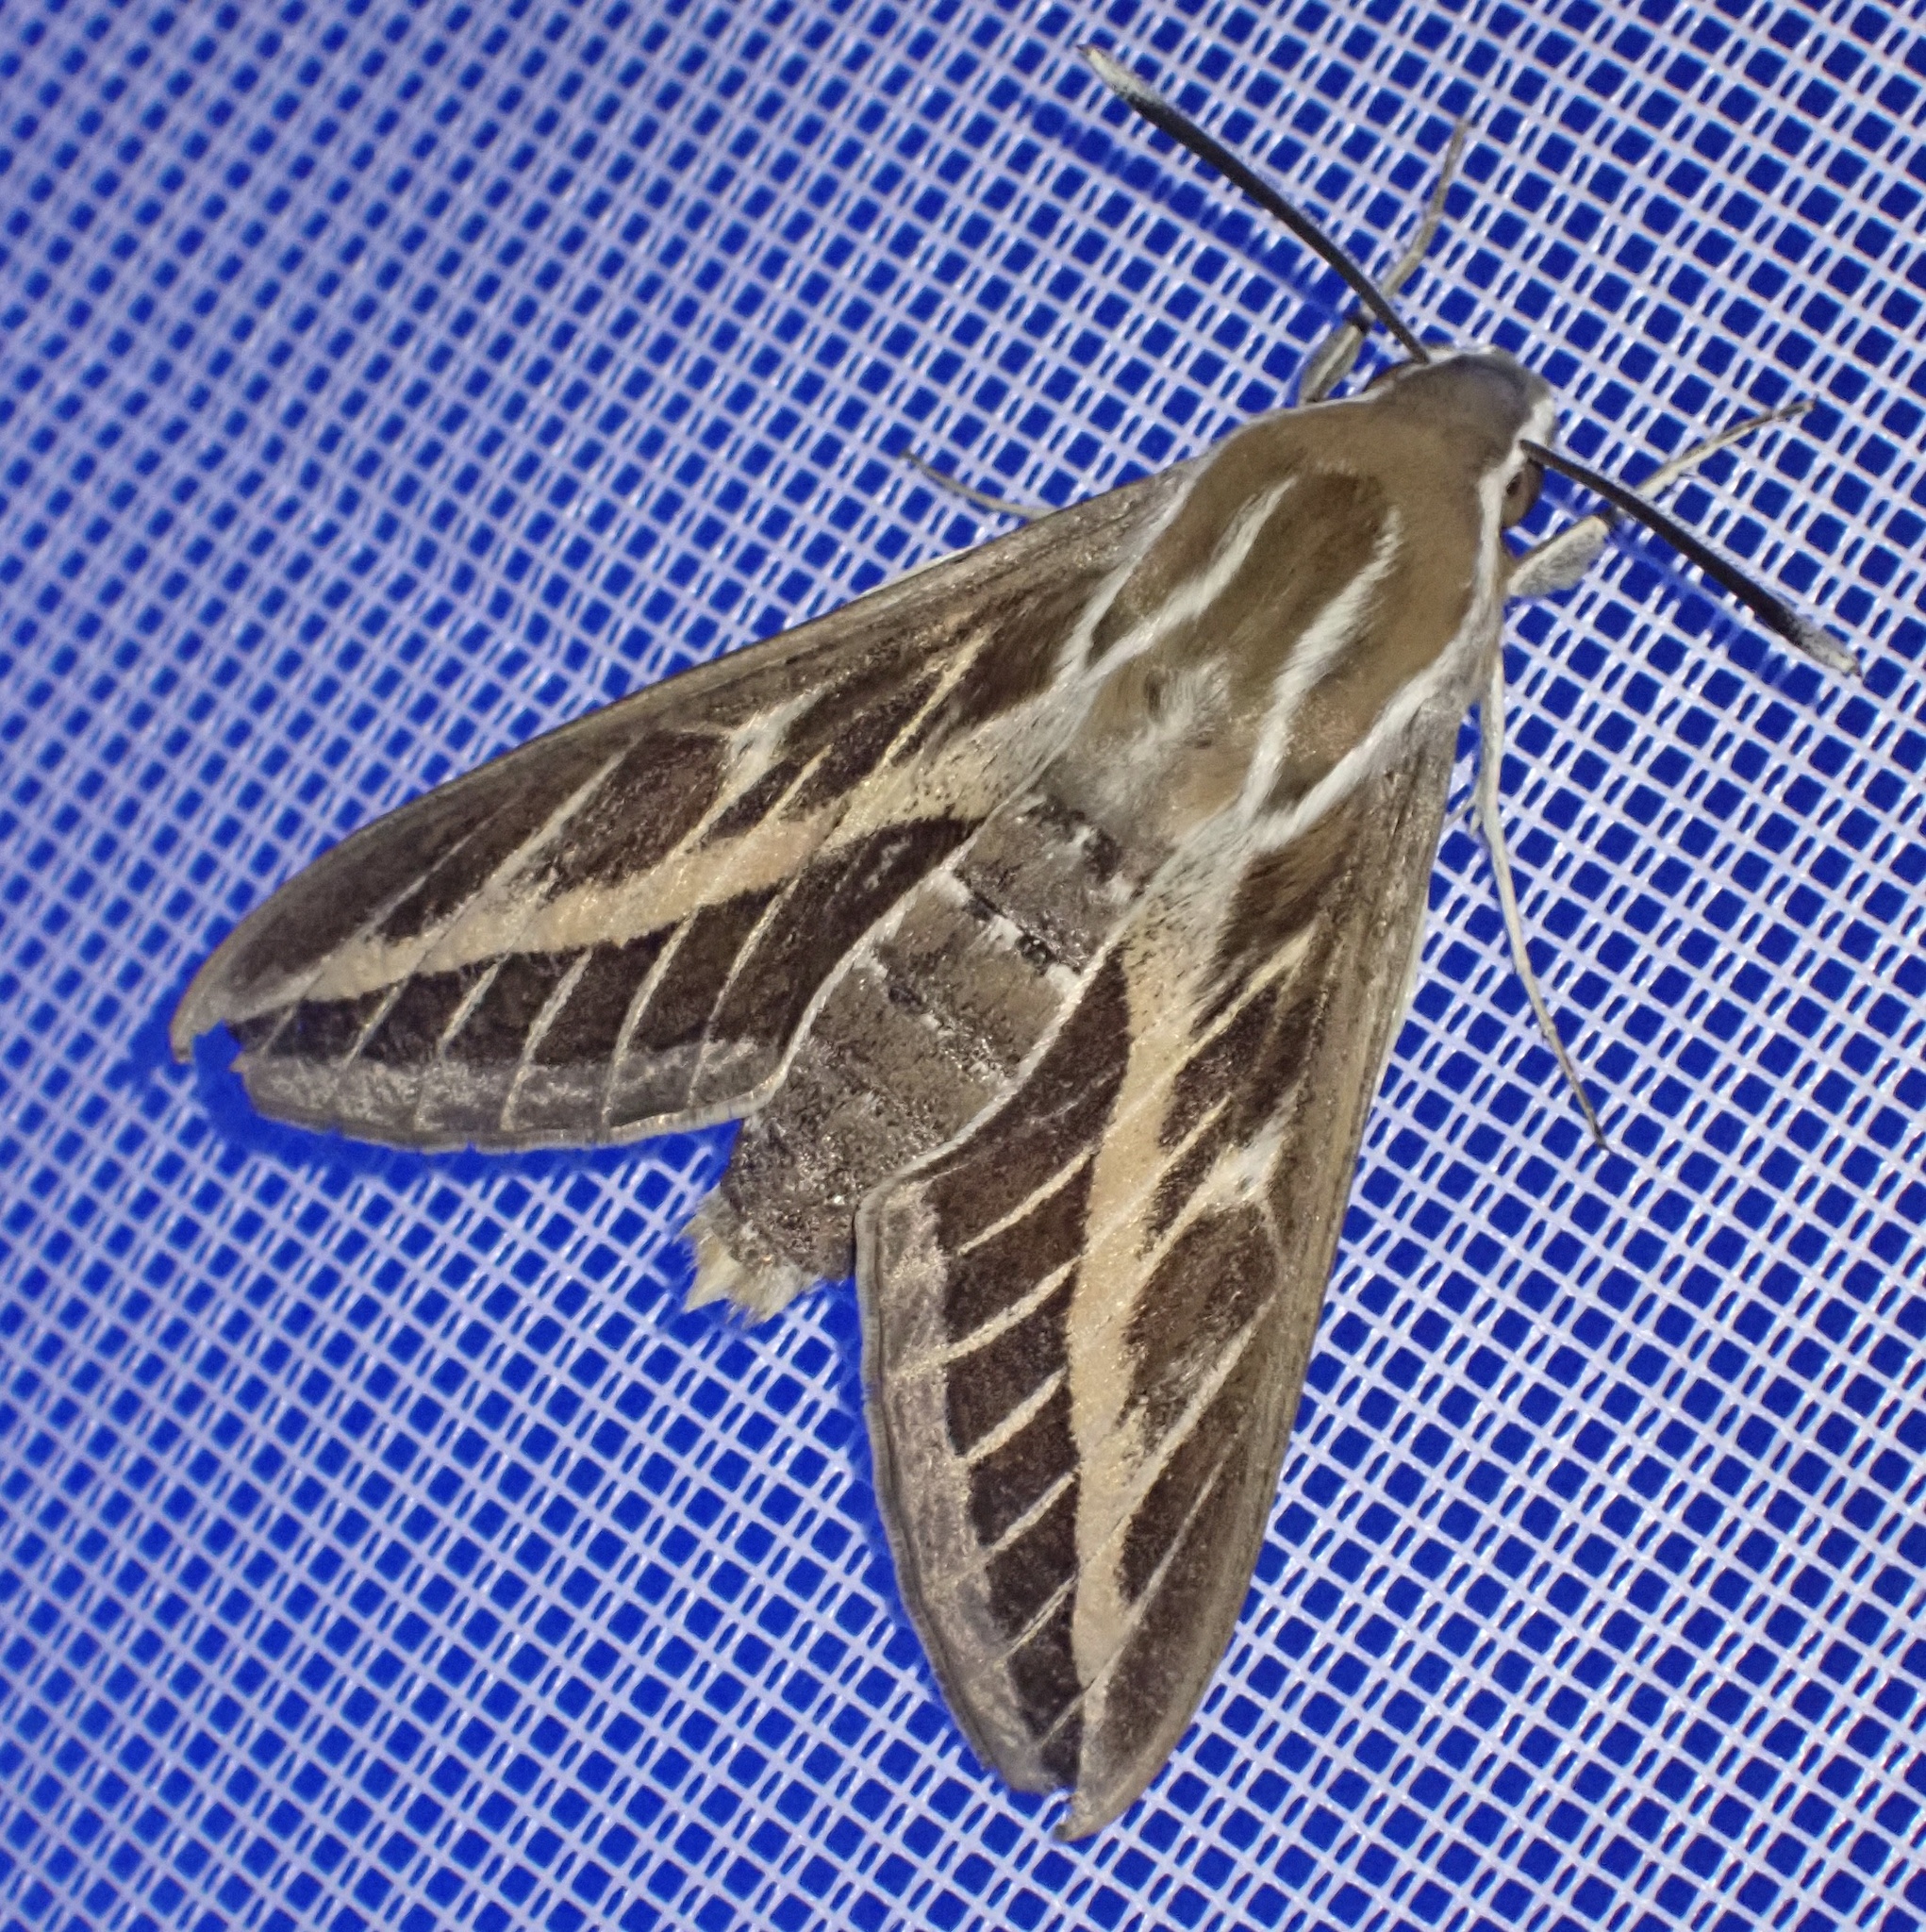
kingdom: Animalia
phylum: Arthropoda
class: Insecta
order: Lepidoptera
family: Sphingidae
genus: Hyles
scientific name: Hyles livornica
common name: Striped hawk-moth
